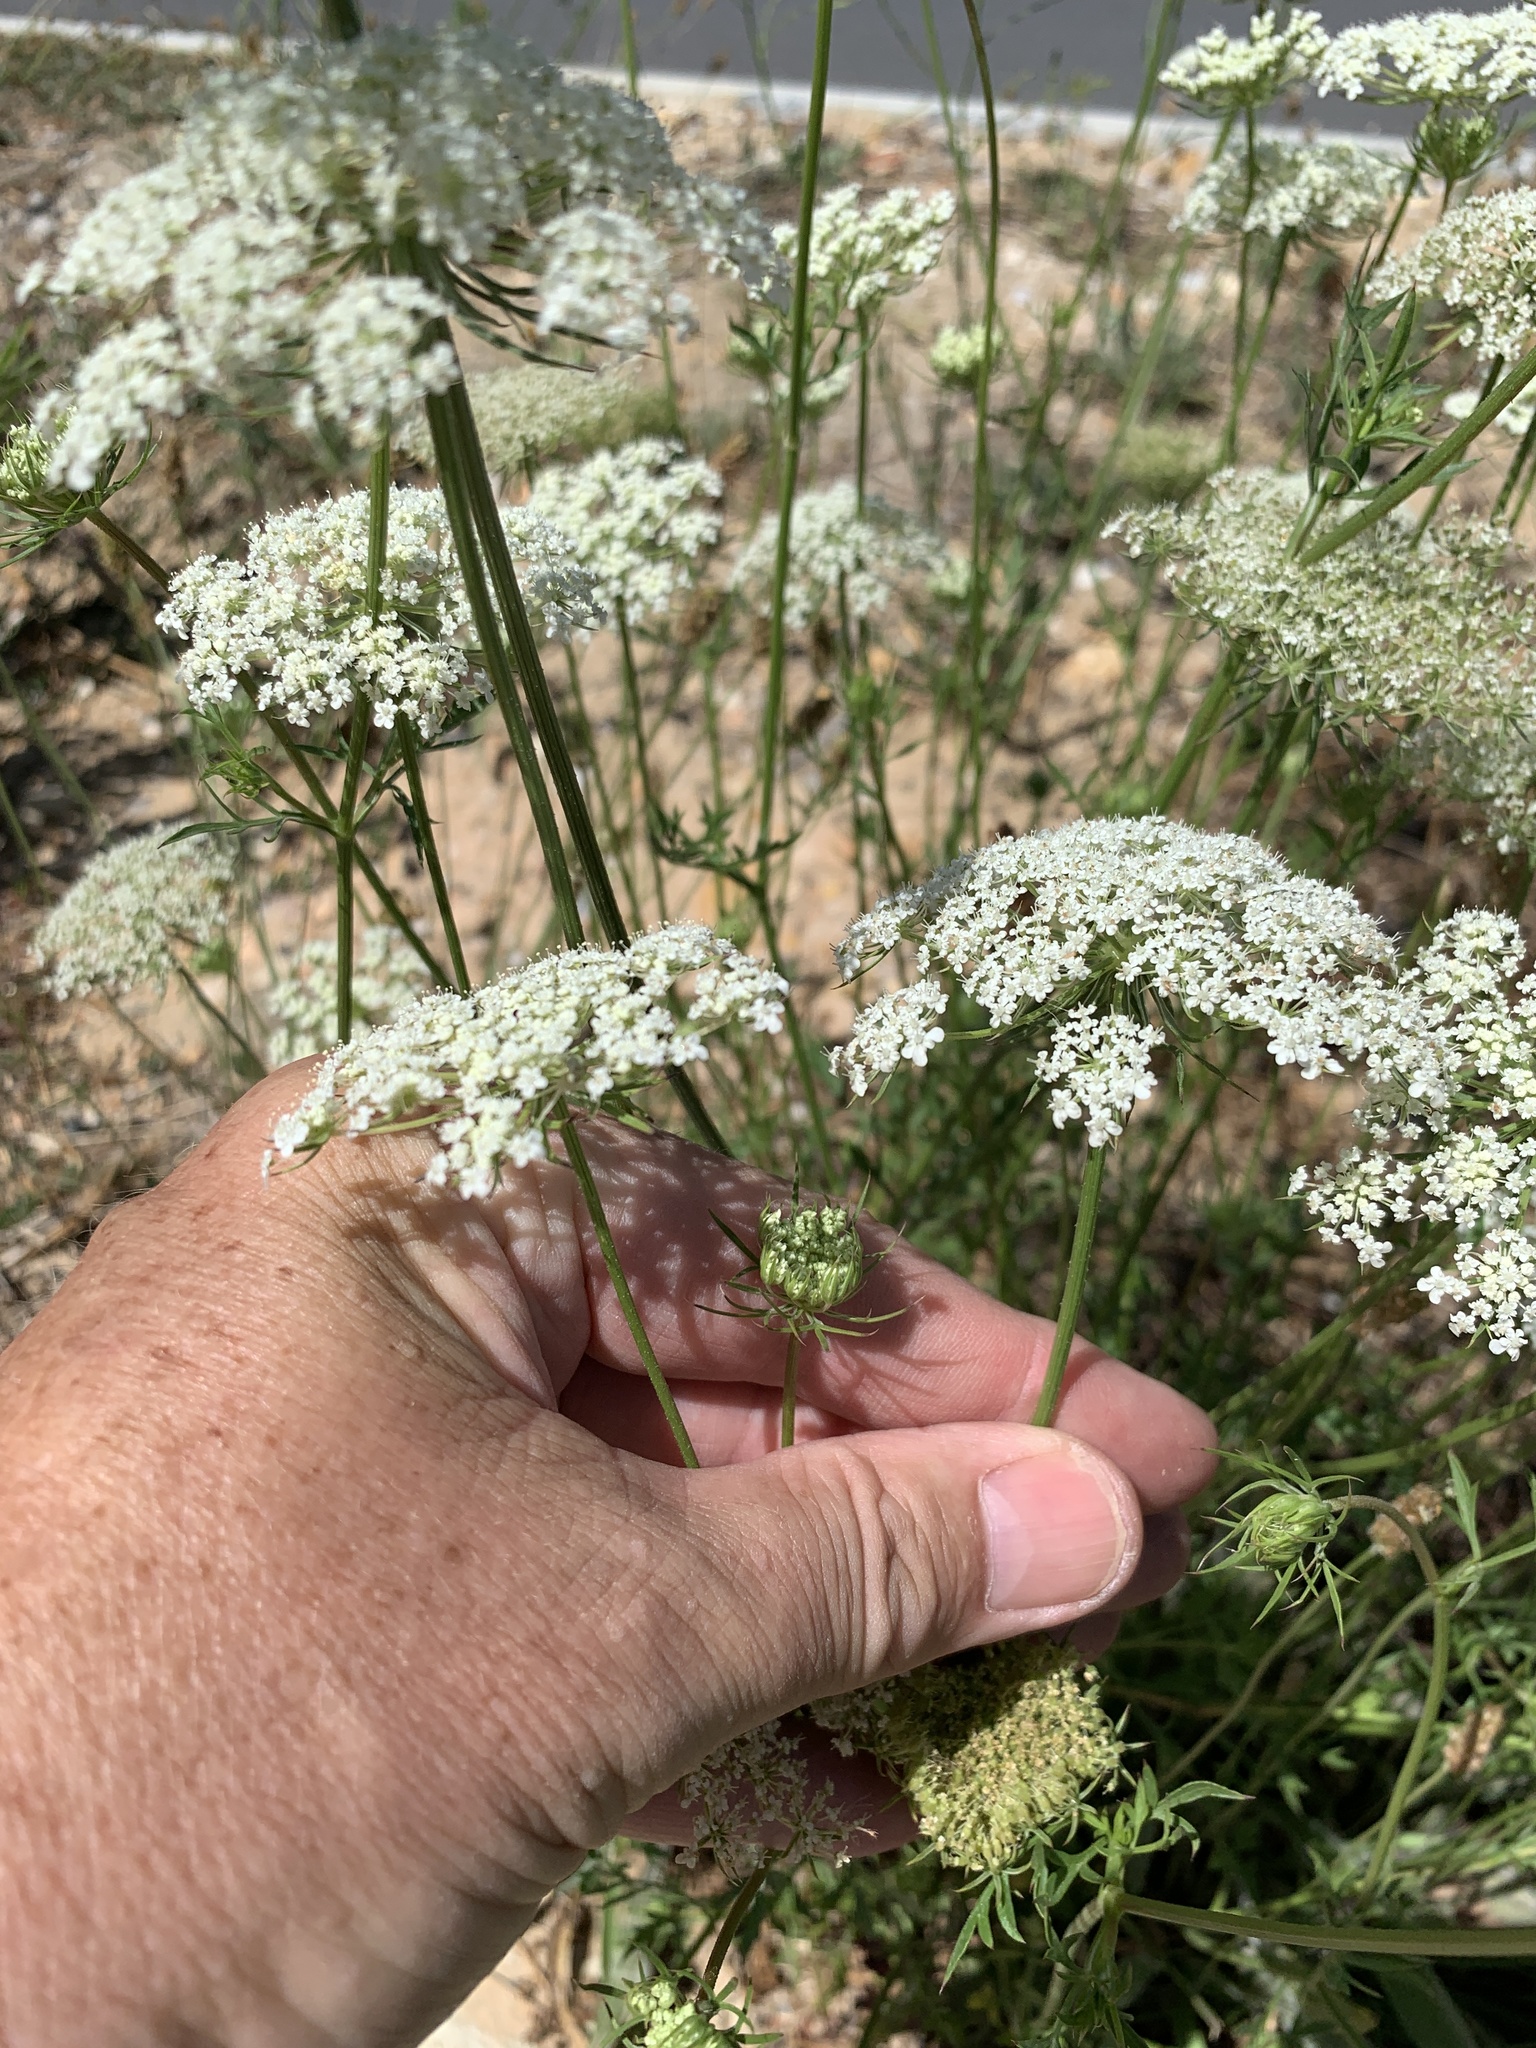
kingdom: Plantae
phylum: Tracheophyta
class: Magnoliopsida
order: Apiales
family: Apiaceae
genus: Ammi
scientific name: Ammi majus
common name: Bullwort
